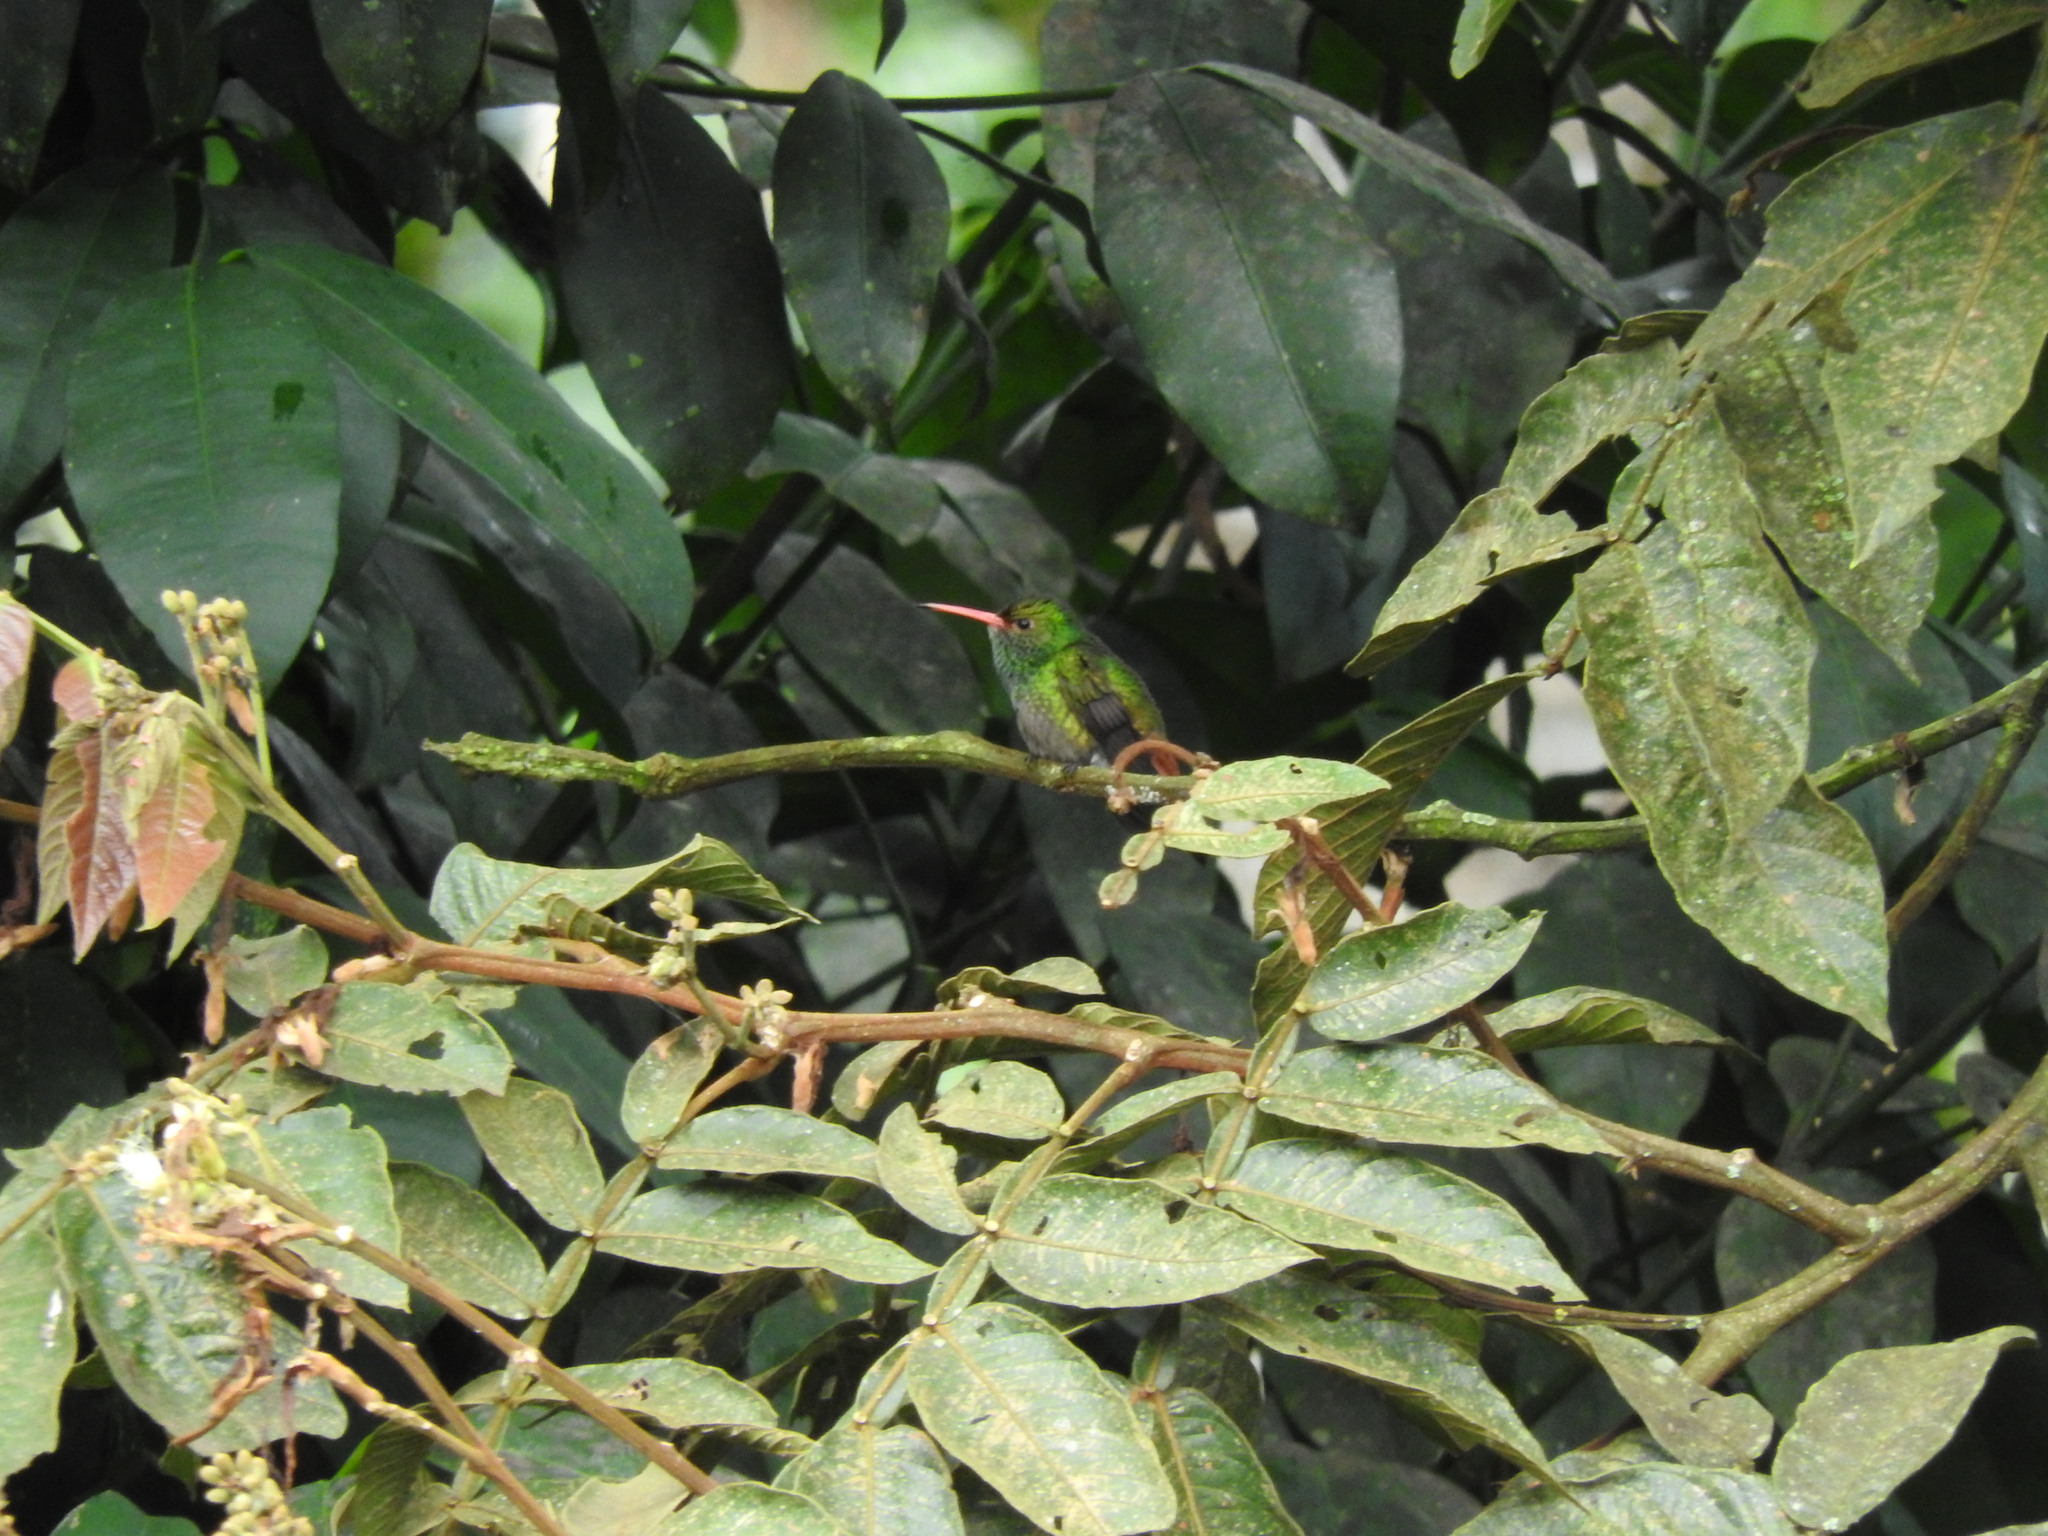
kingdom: Animalia
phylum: Chordata
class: Aves
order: Apodiformes
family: Trochilidae
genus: Amazilia
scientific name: Amazilia tzacatl
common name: Rufous-tailed hummingbird
